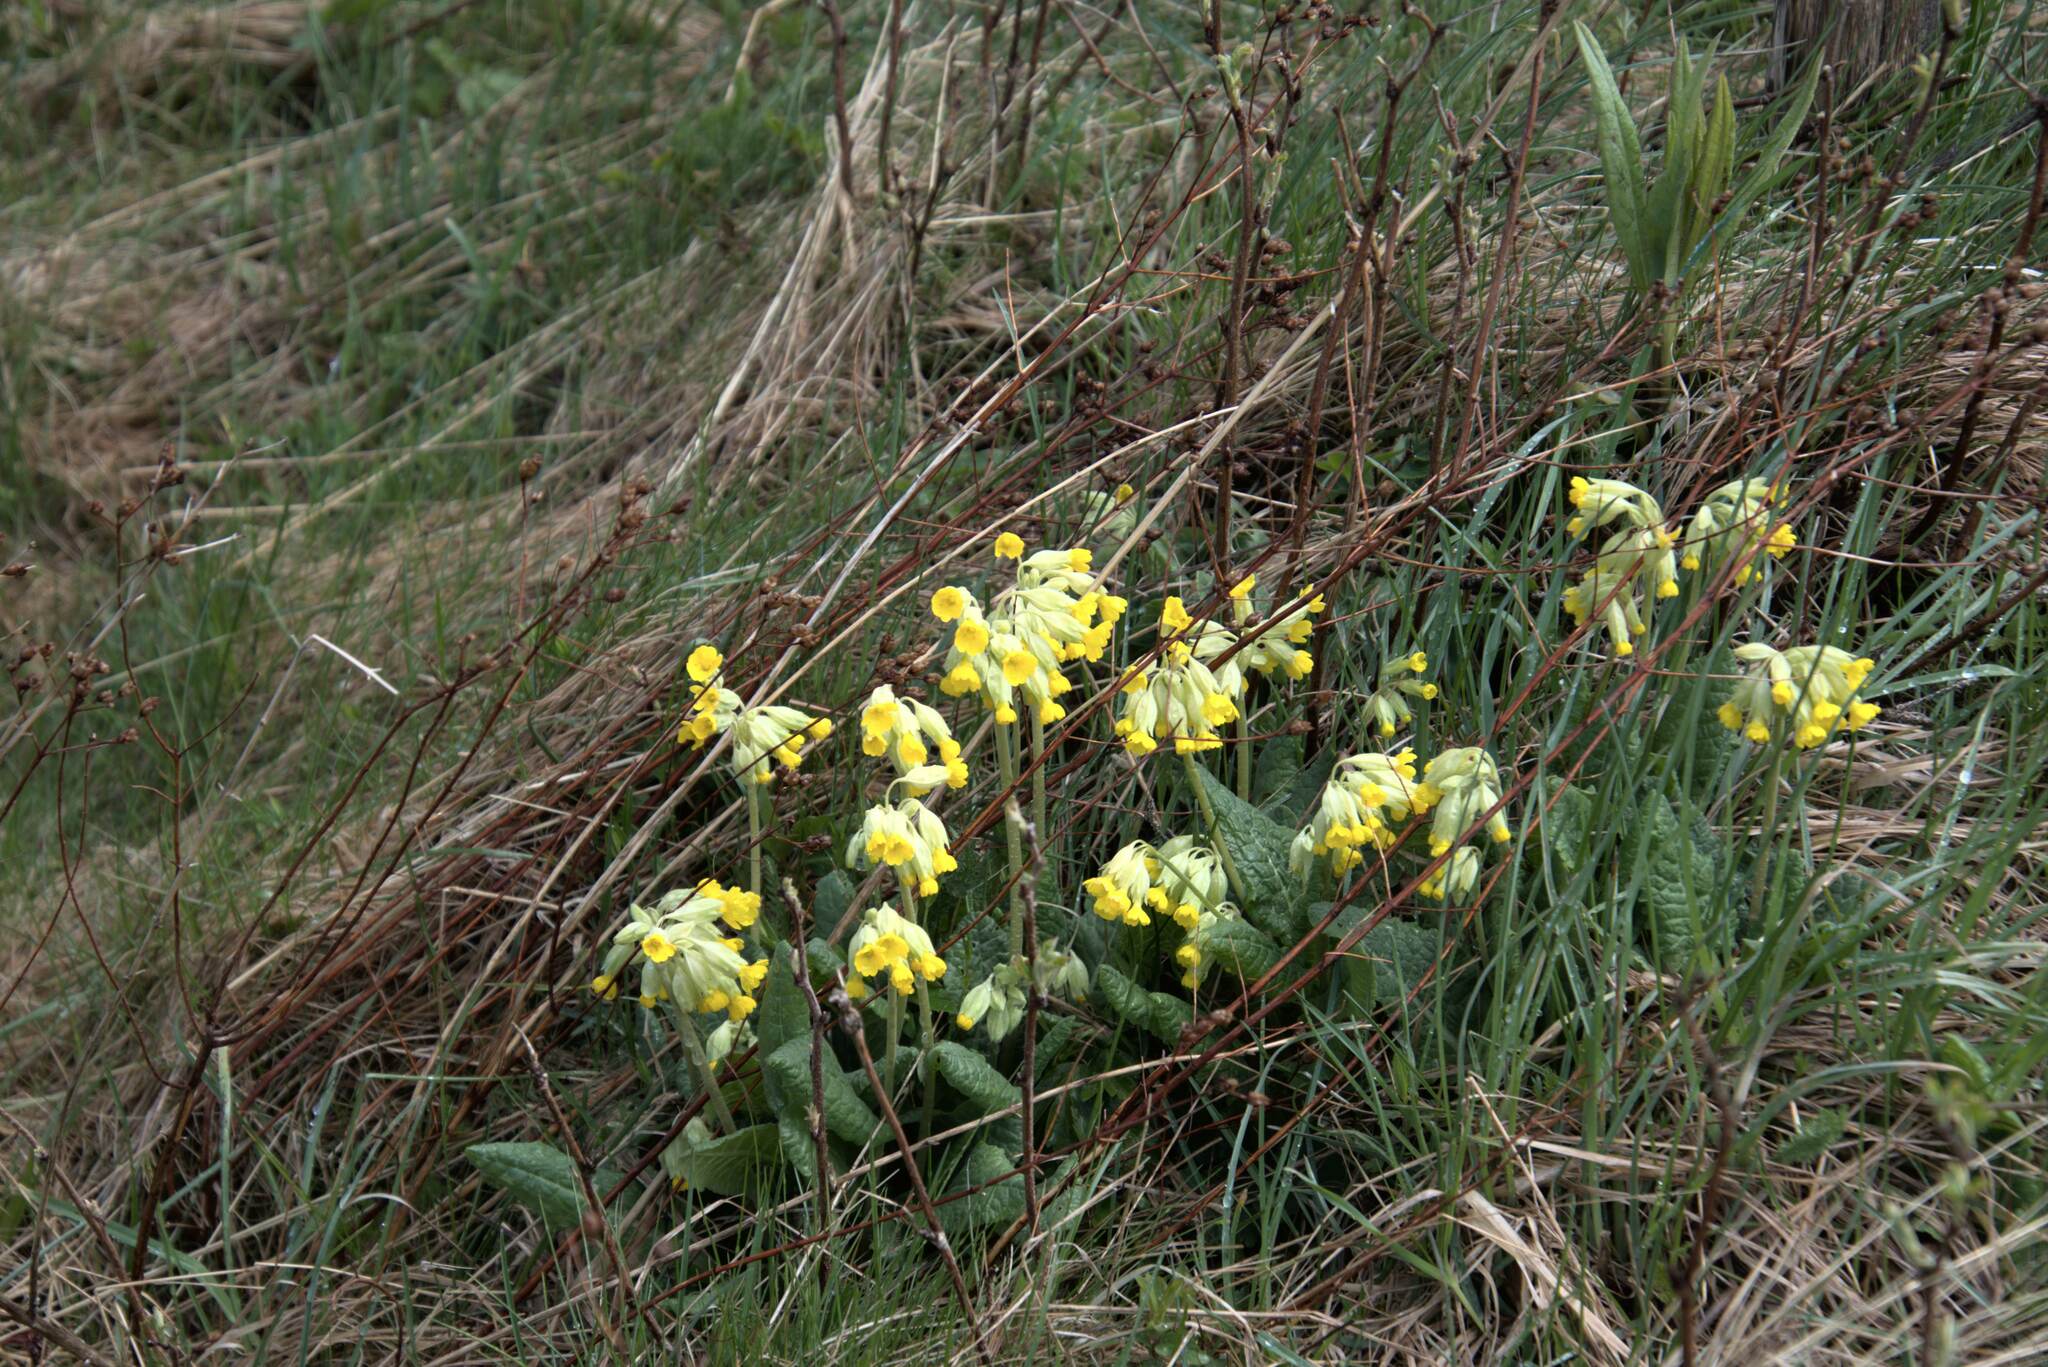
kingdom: Plantae
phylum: Tracheophyta
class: Magnoliopsida
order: Ericales
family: Primulaceae
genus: Primula
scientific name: Primula veris
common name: Cowslip
